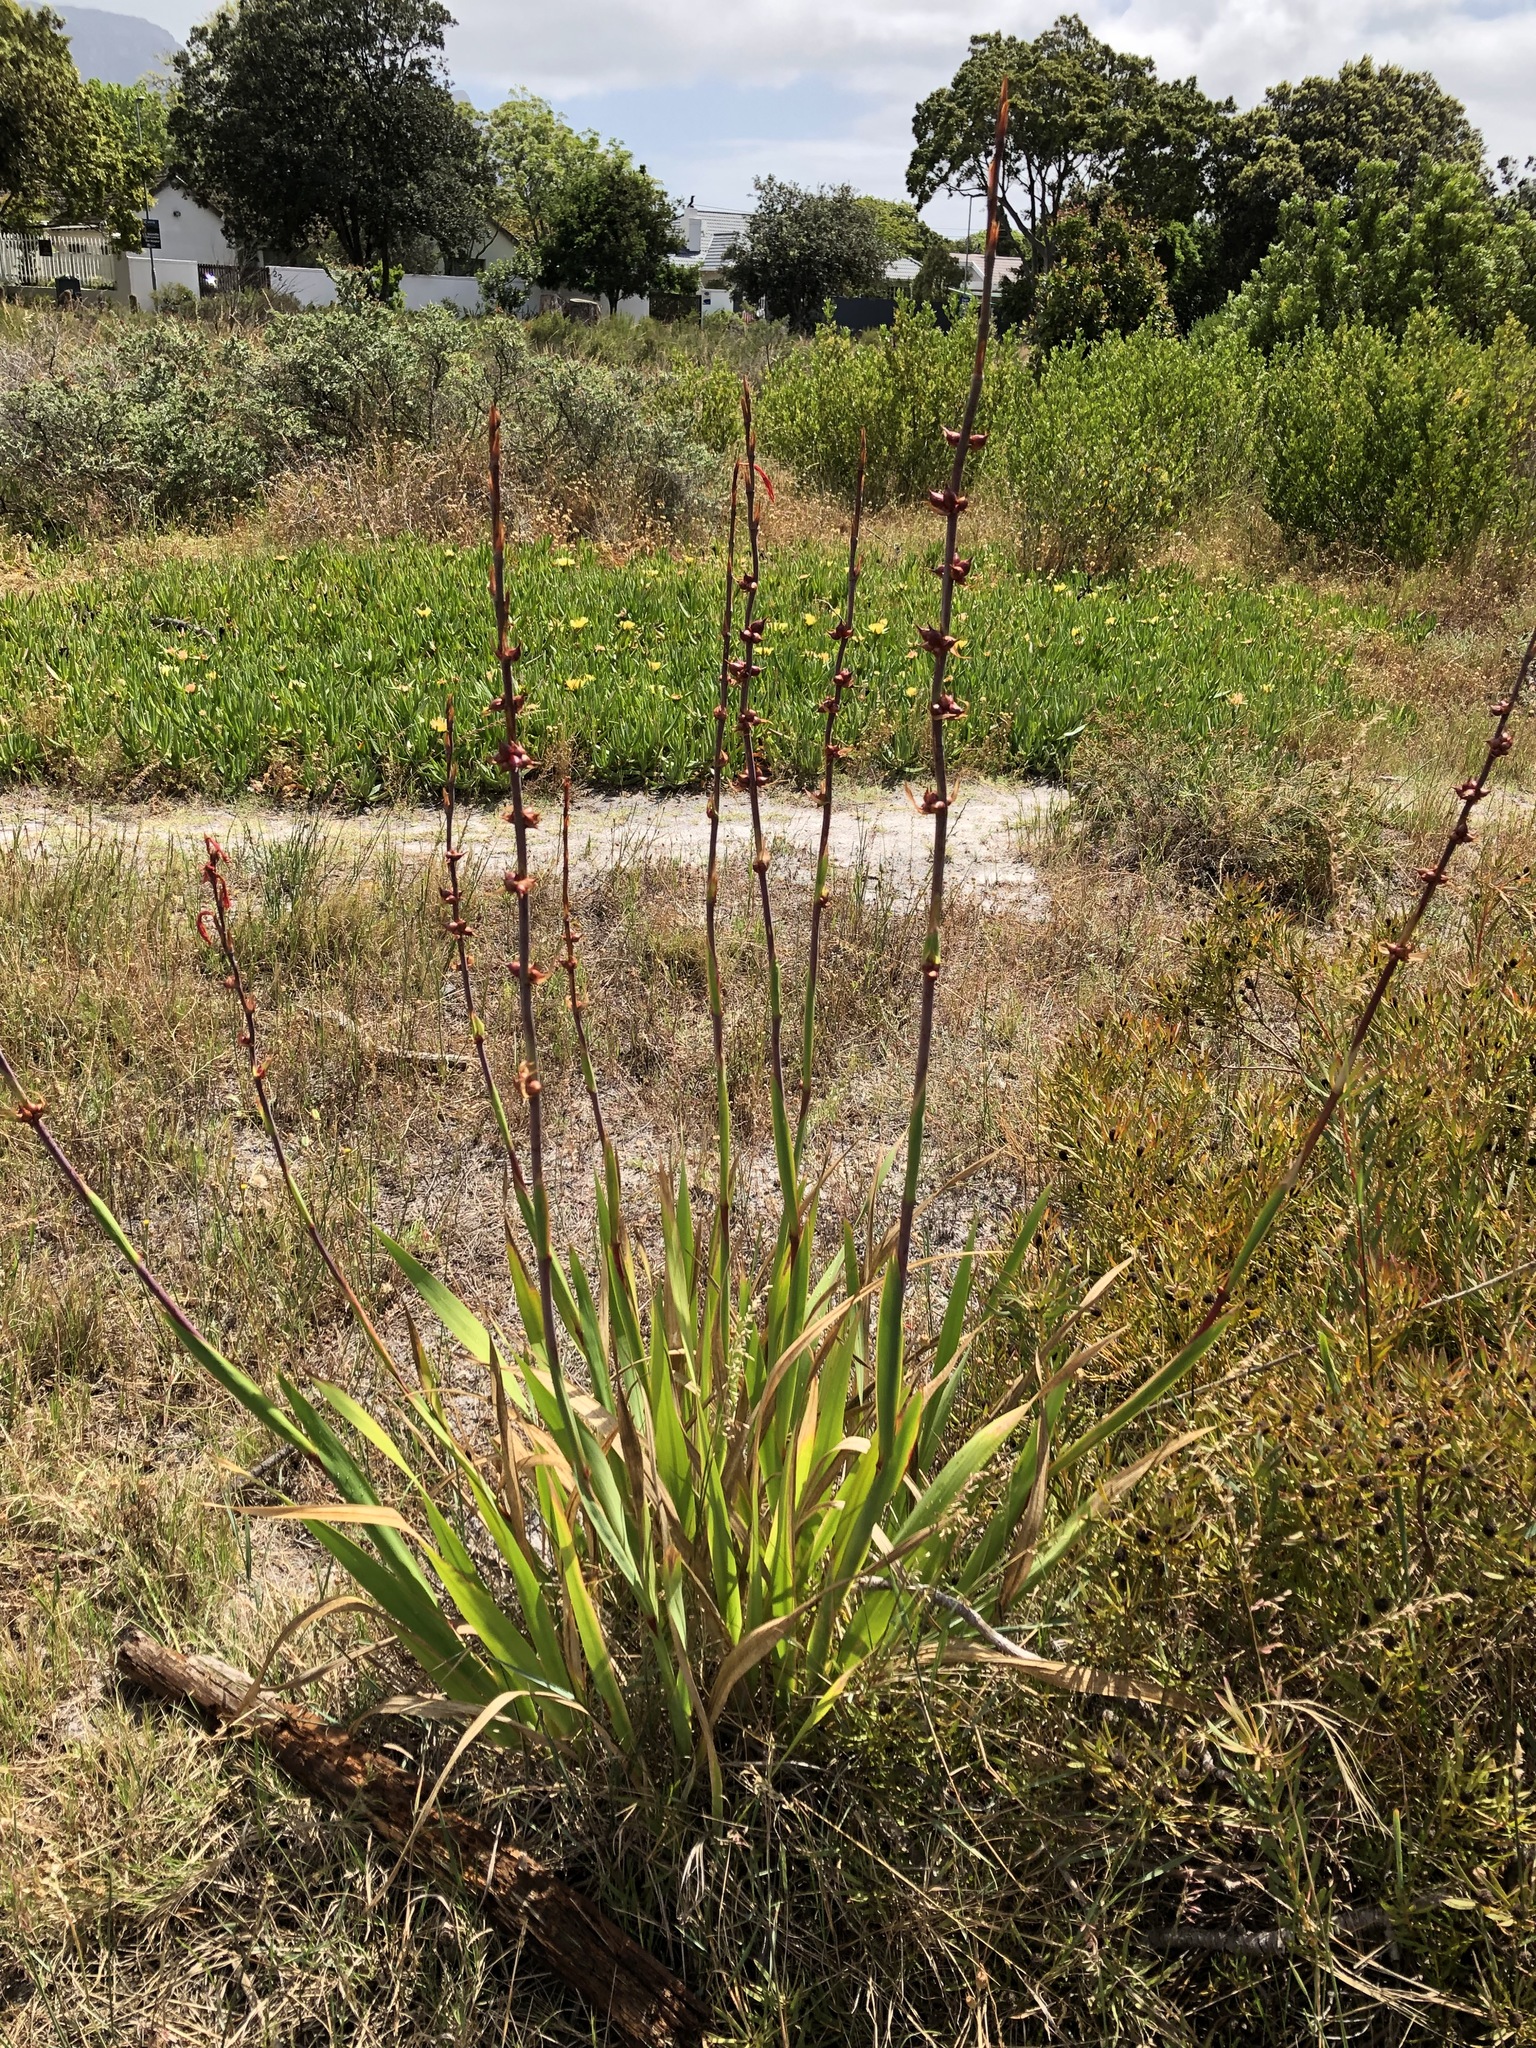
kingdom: Plantae
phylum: Tracheophyta
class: Liliopsida
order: Asparagales
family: Iridaceae
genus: Watsonia
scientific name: Watsonia meriana
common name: Bulbil bugle-lily
